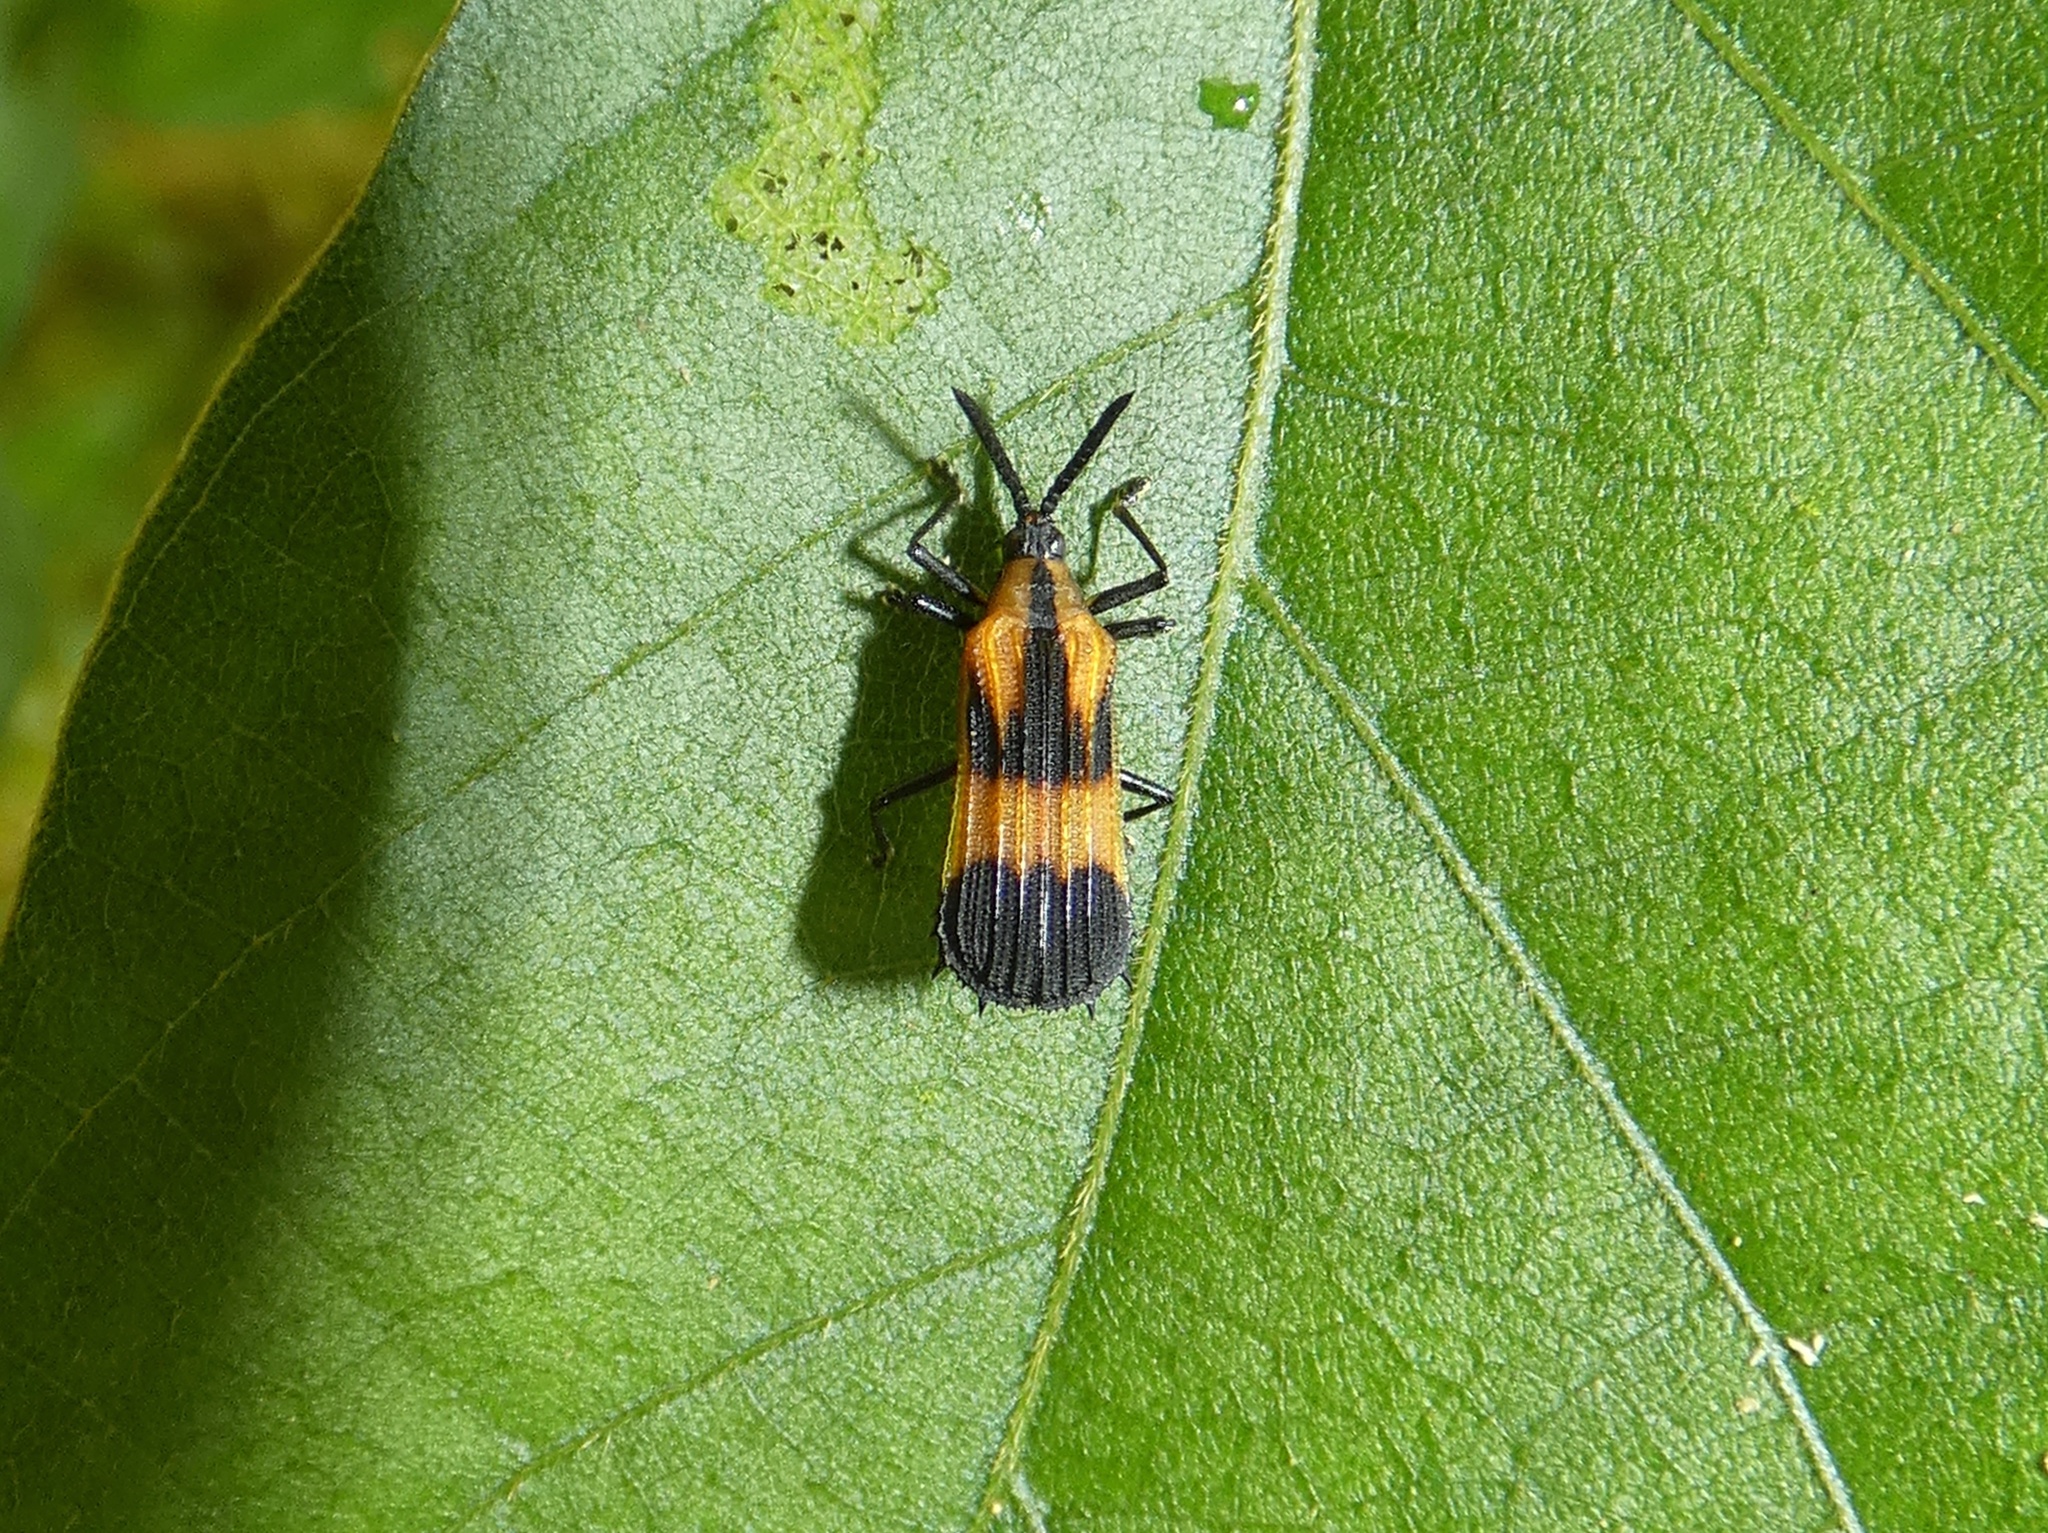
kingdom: Animalia
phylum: Arthropoda
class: Insecta
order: Coleoptera
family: Chrysomelidae
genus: Oxychalepus
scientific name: Oxychalepus alienus
